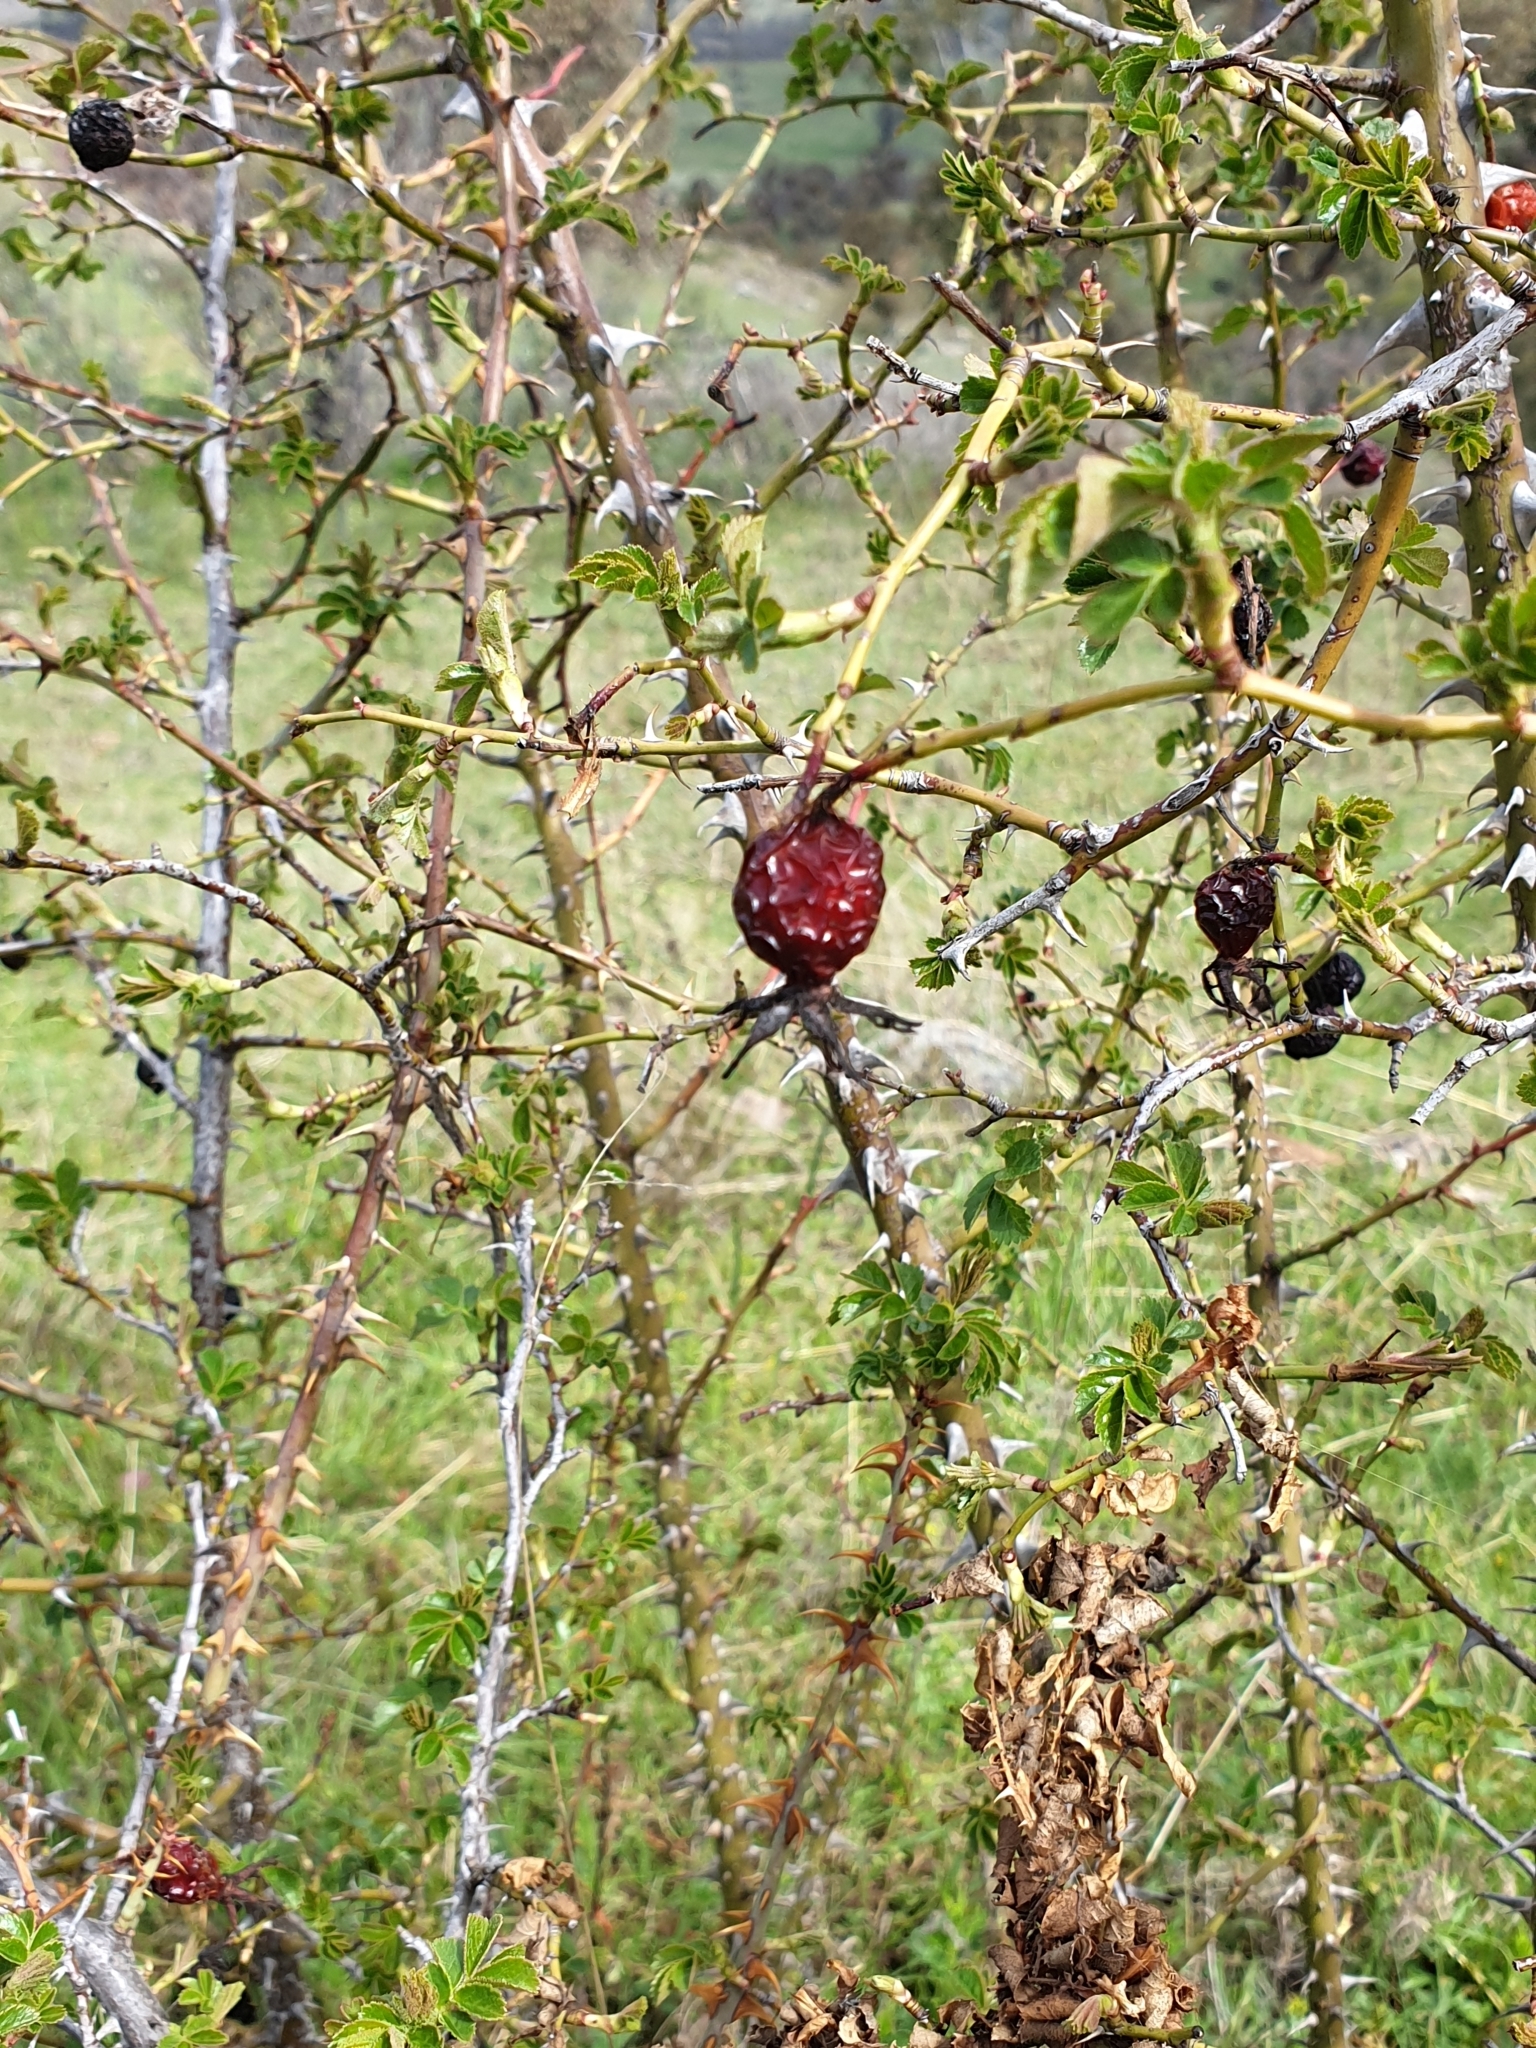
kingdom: Plantae
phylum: Tracheophyta
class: Magnoliopsida
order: Rosales
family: Rosaceae
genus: Rosa
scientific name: Rosa rubiginosa
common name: Sweet-briar
